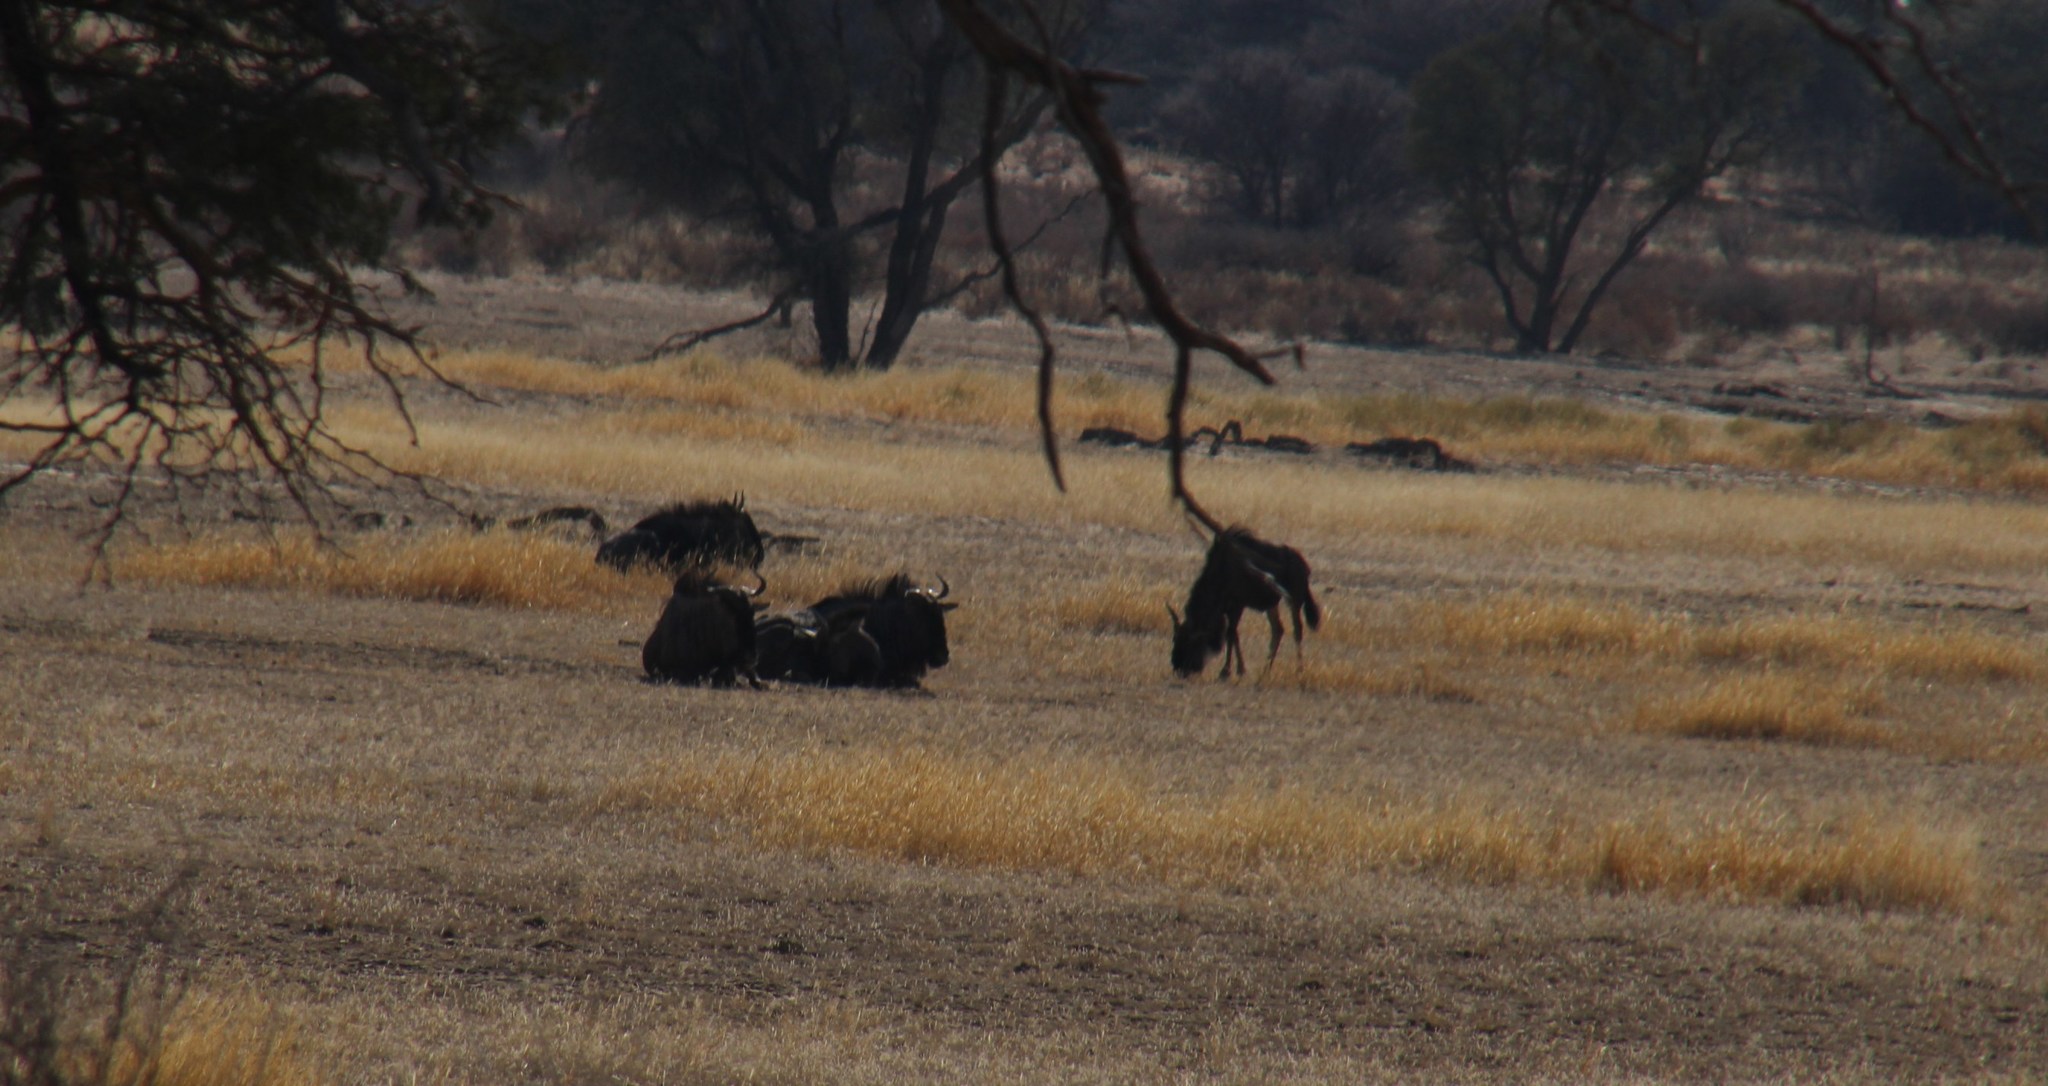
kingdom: Animalia
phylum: Chordata
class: Mammalia
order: Artiodactyla
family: Bovidae
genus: Connochaetes
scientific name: Connochaetes taurinus
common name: Blue wildebeest
